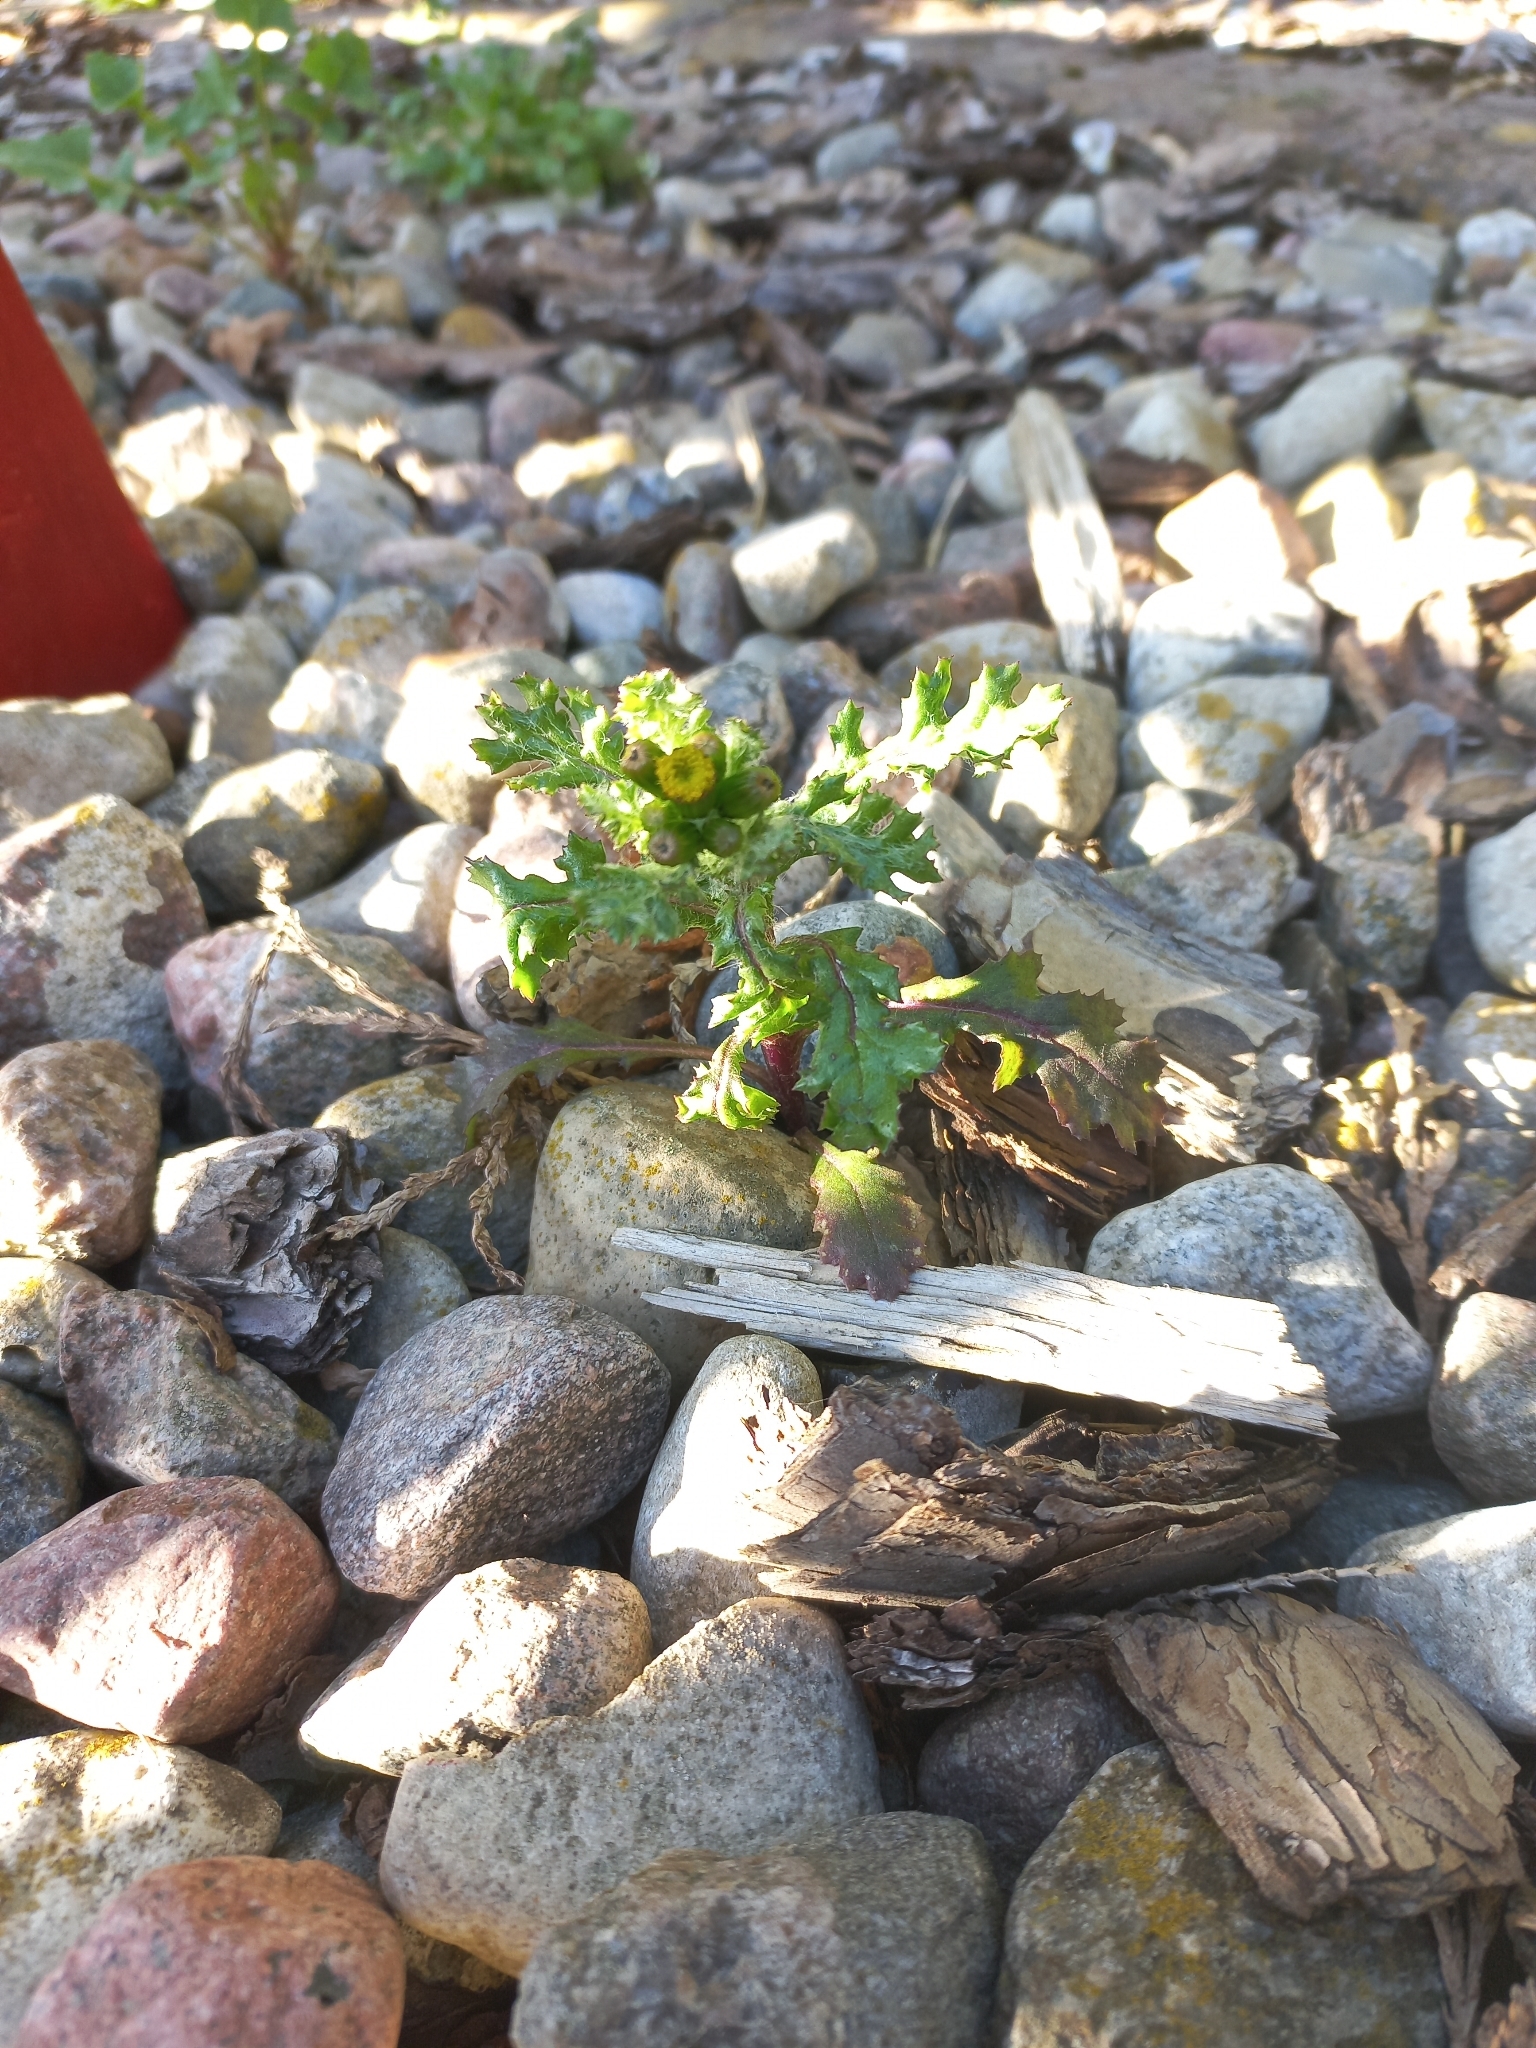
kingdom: Plantae
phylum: Tracheophyta
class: Magnoliopsida
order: Asterales
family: Asteraceae
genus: Senecio
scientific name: Senecio vulgaris
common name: Old-man-in-the-spring
